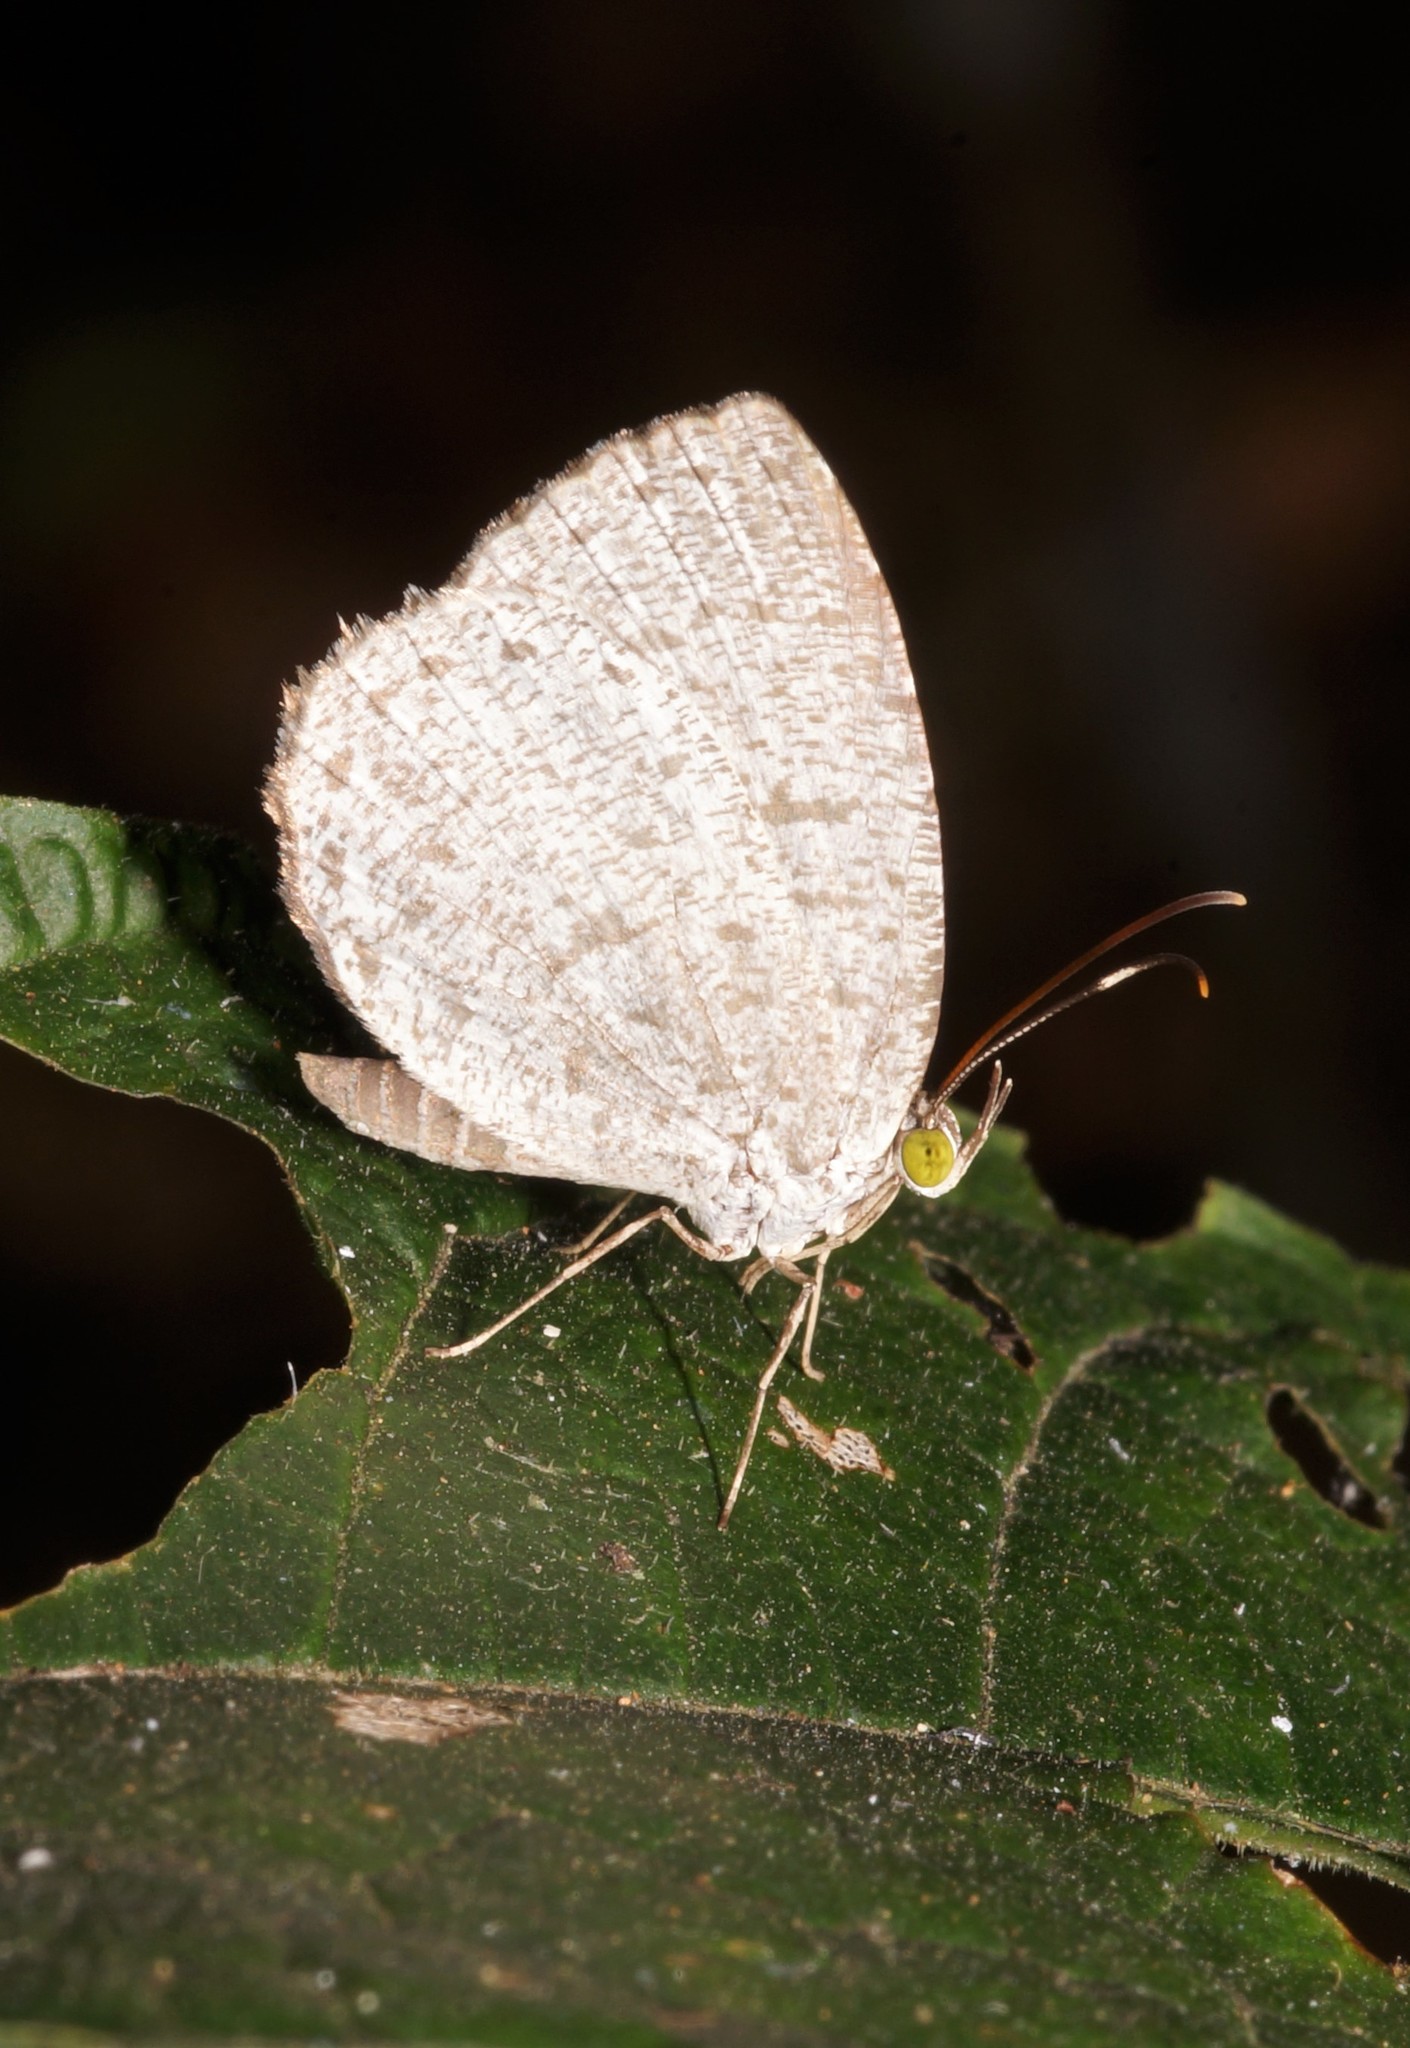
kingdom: Animalia
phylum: Arthropoda
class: Insecta
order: Lepidoptera
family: Lycaenidae
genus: Allotinus
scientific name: Allotinus unicolor
